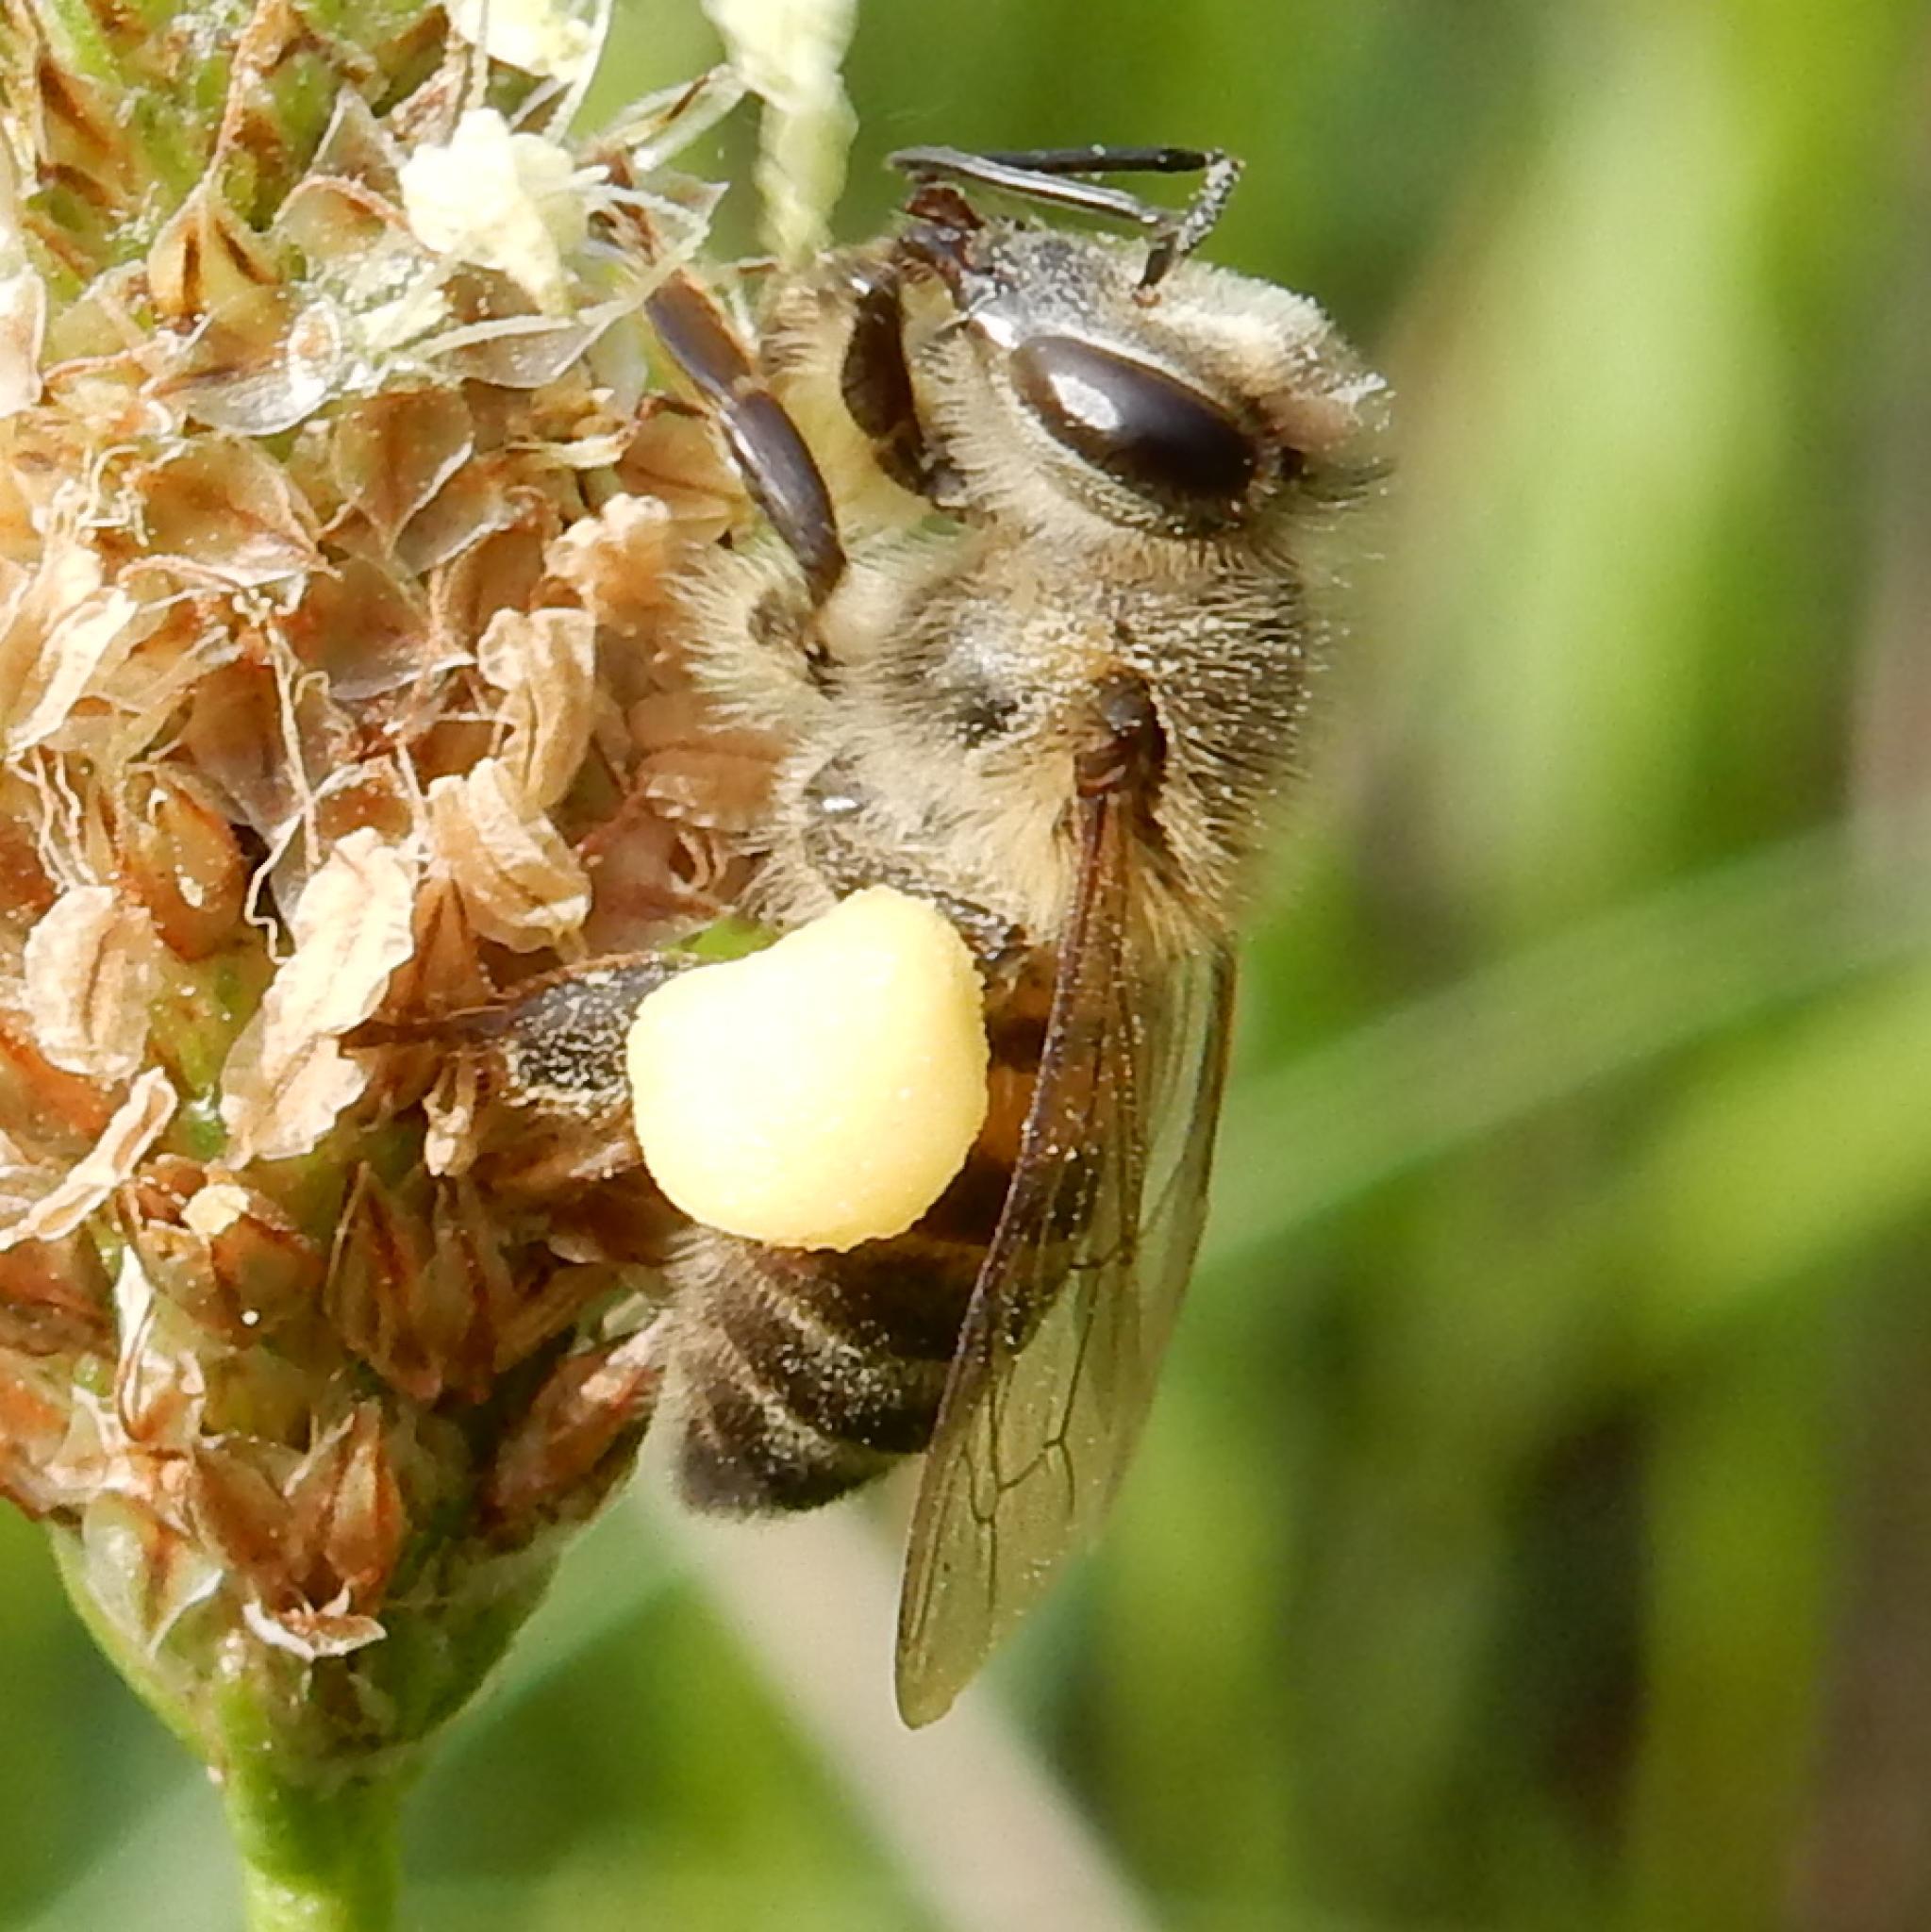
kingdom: Animalia
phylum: Arthropoda
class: Insecta
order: Hymenoptera
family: Apidae
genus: Apis
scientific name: Apis mellifera
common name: Honey bee
